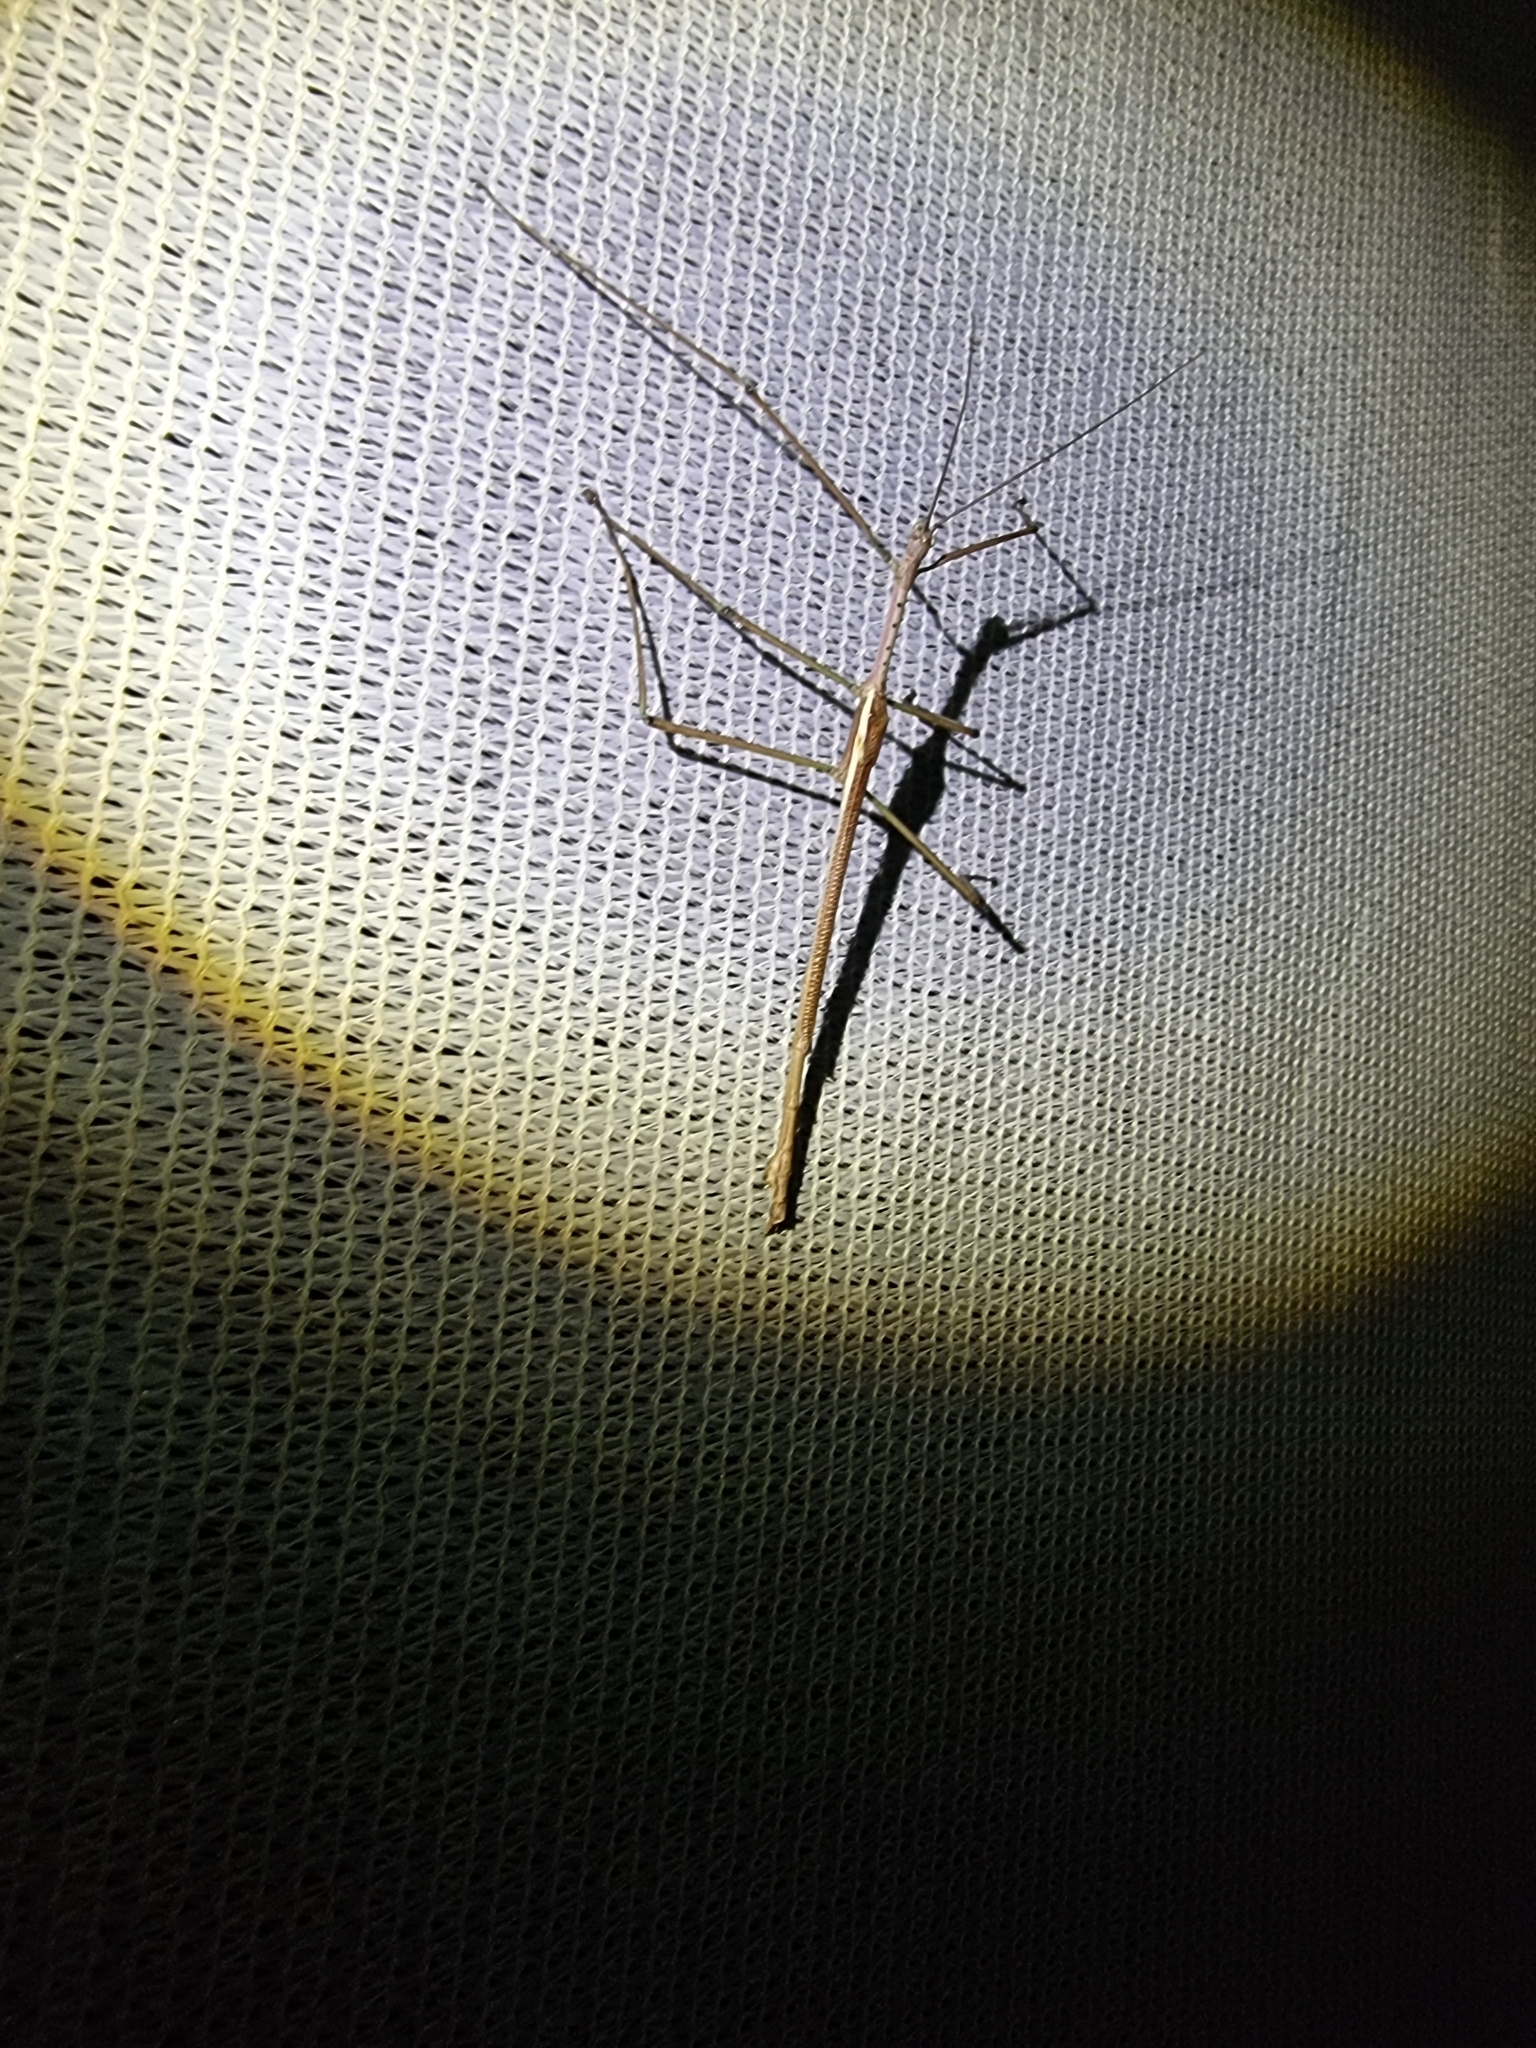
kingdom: Animalia
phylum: Arthropoda
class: Insecta
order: Phasmida
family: Phasmatidae
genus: Anchiale
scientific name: Anchiale austrotessulata
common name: Tessellated stick-insect
